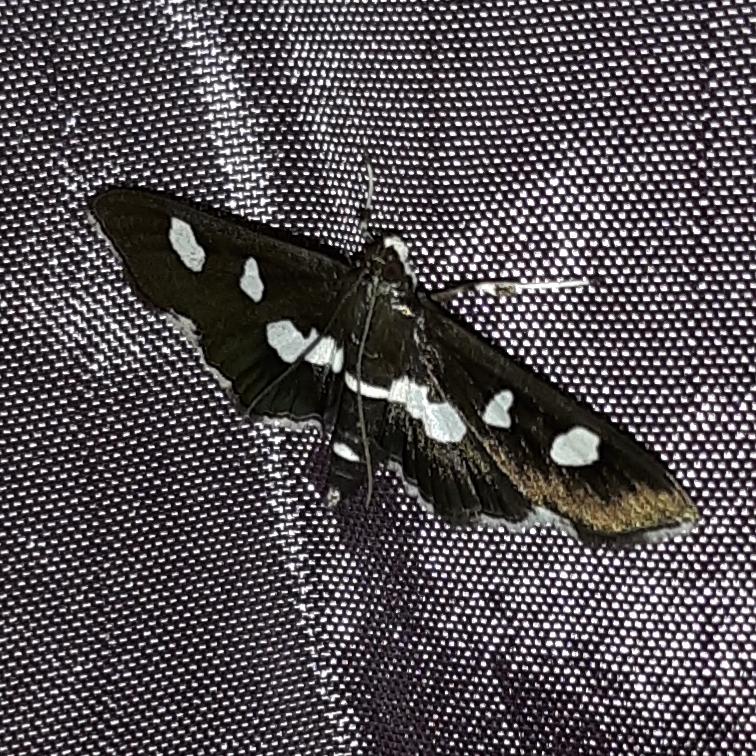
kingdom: Animalia
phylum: Arthropoda
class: Insecta
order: Lepidoptera
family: Crambidae
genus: Desmia
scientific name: Desmia
